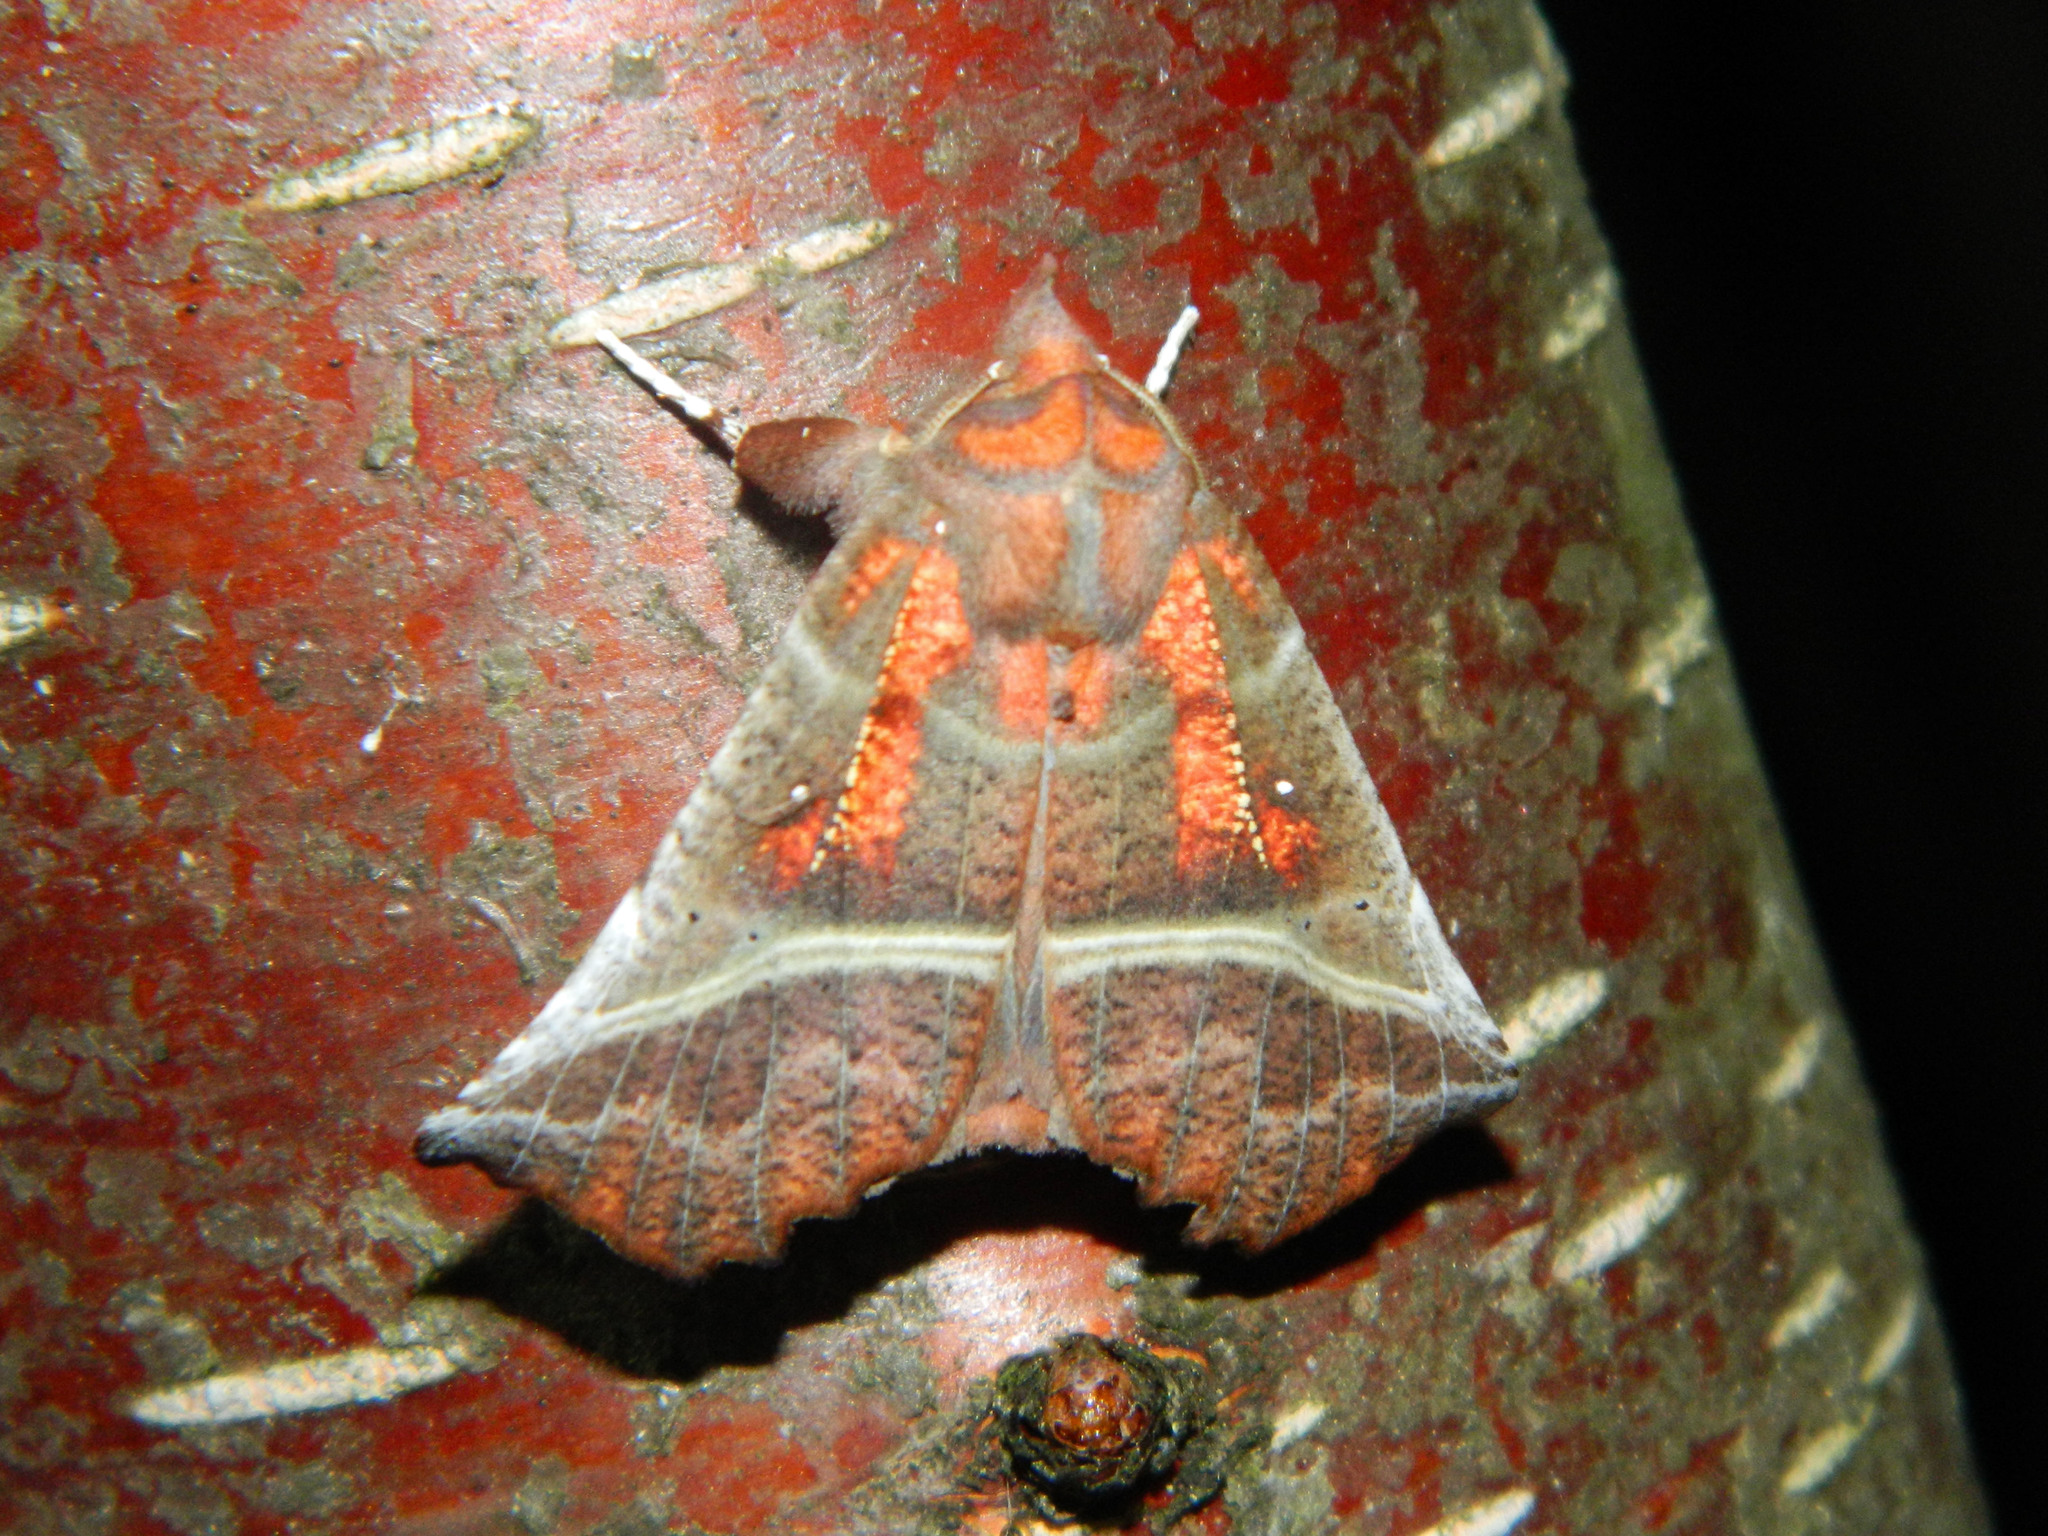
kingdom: Animalia
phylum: Arthropoda
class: Insecta
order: Lepidoptera
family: Erebidae
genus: Scoliopteryx
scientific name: Scoliopteryx libatrix
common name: Herald
